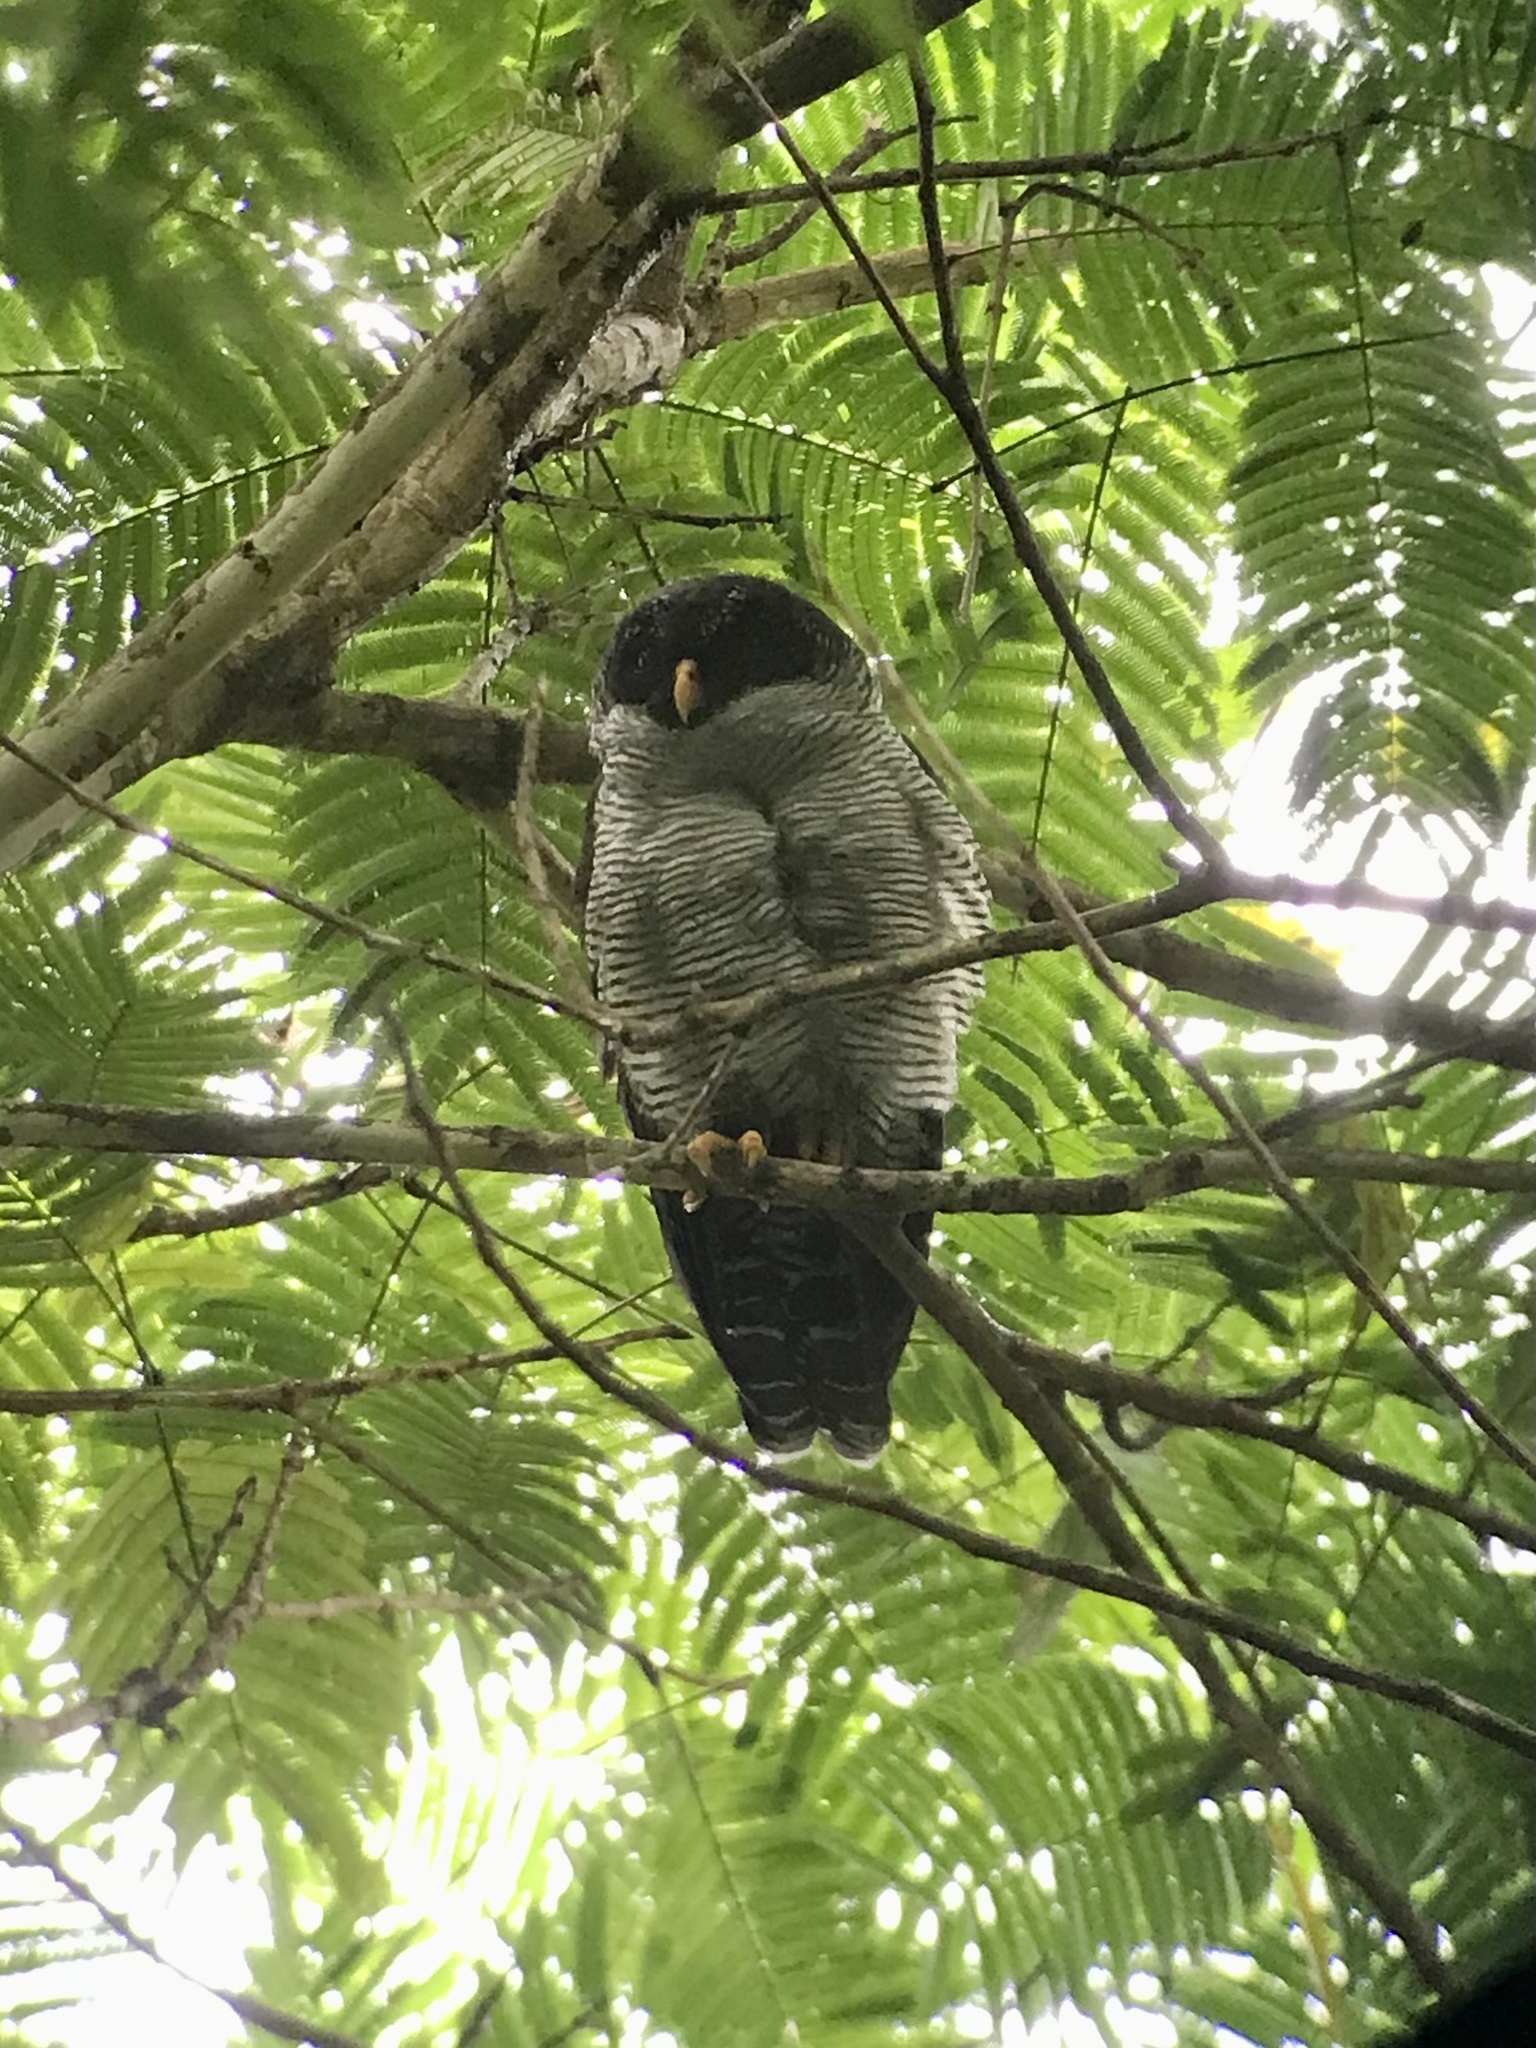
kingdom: Animalia
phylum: Chordata
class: Aves
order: Strigiformes
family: Strigidae
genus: Strix
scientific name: Strix nigrolineata
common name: Black-and-white owl
